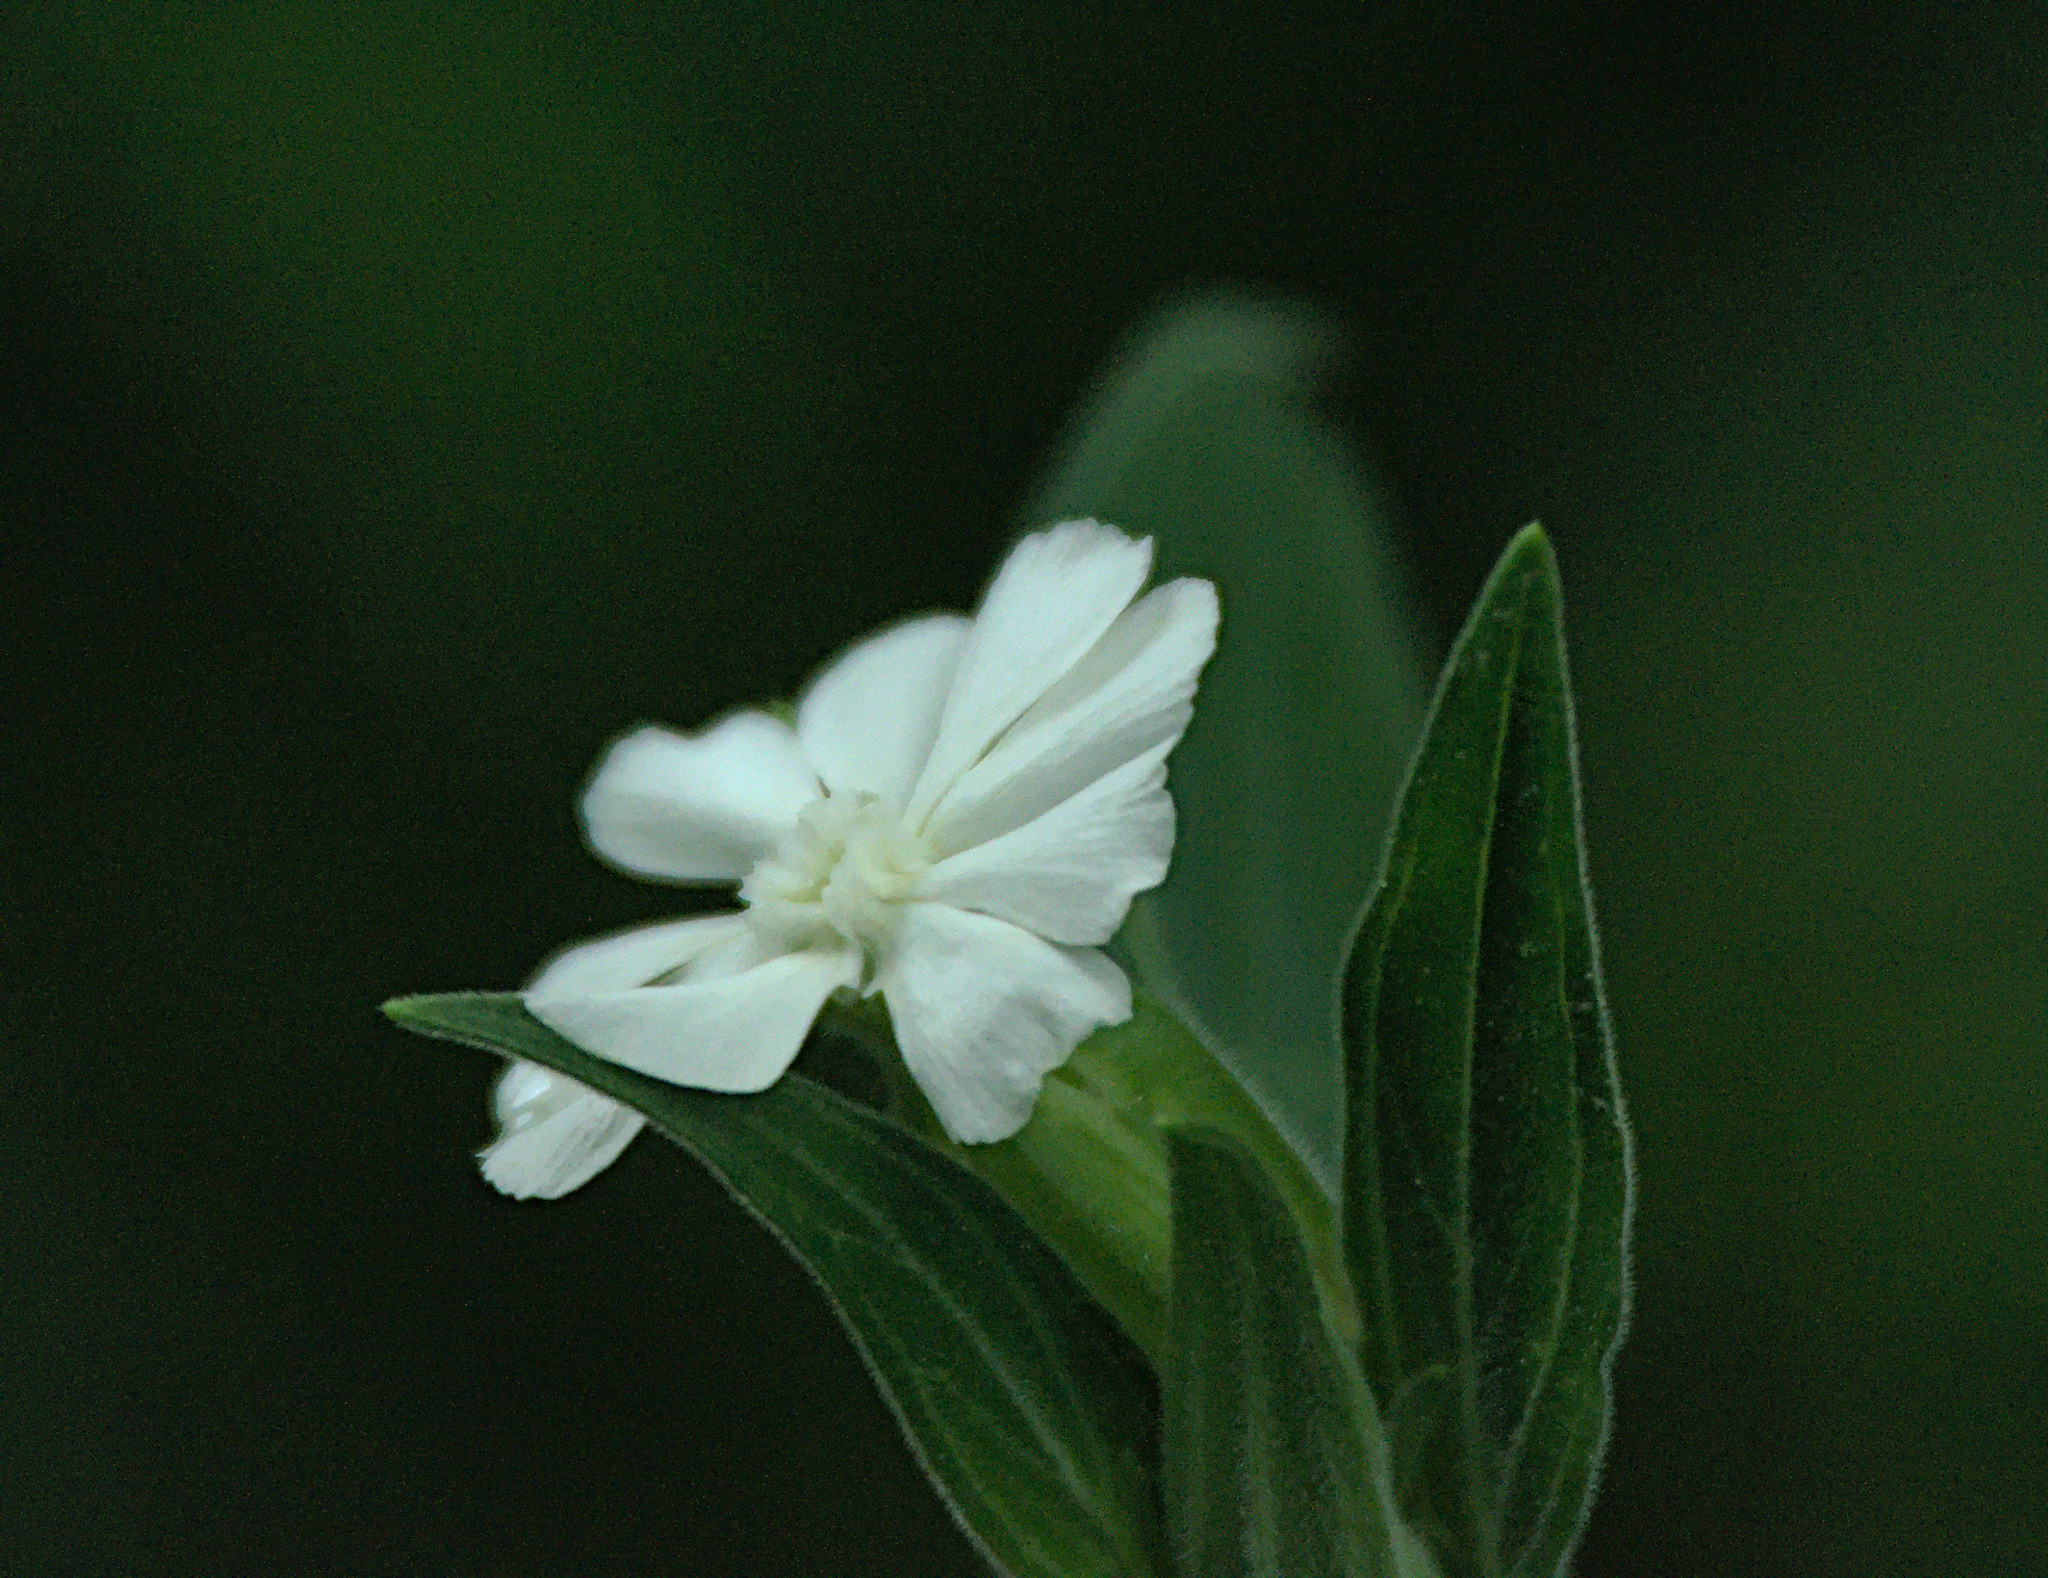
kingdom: Plantae
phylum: Tracheophyta
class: Magnoliopsida
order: Caryophyllales
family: Caryophyllaceae
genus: Silene
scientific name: Silene latifolia
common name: White campion
